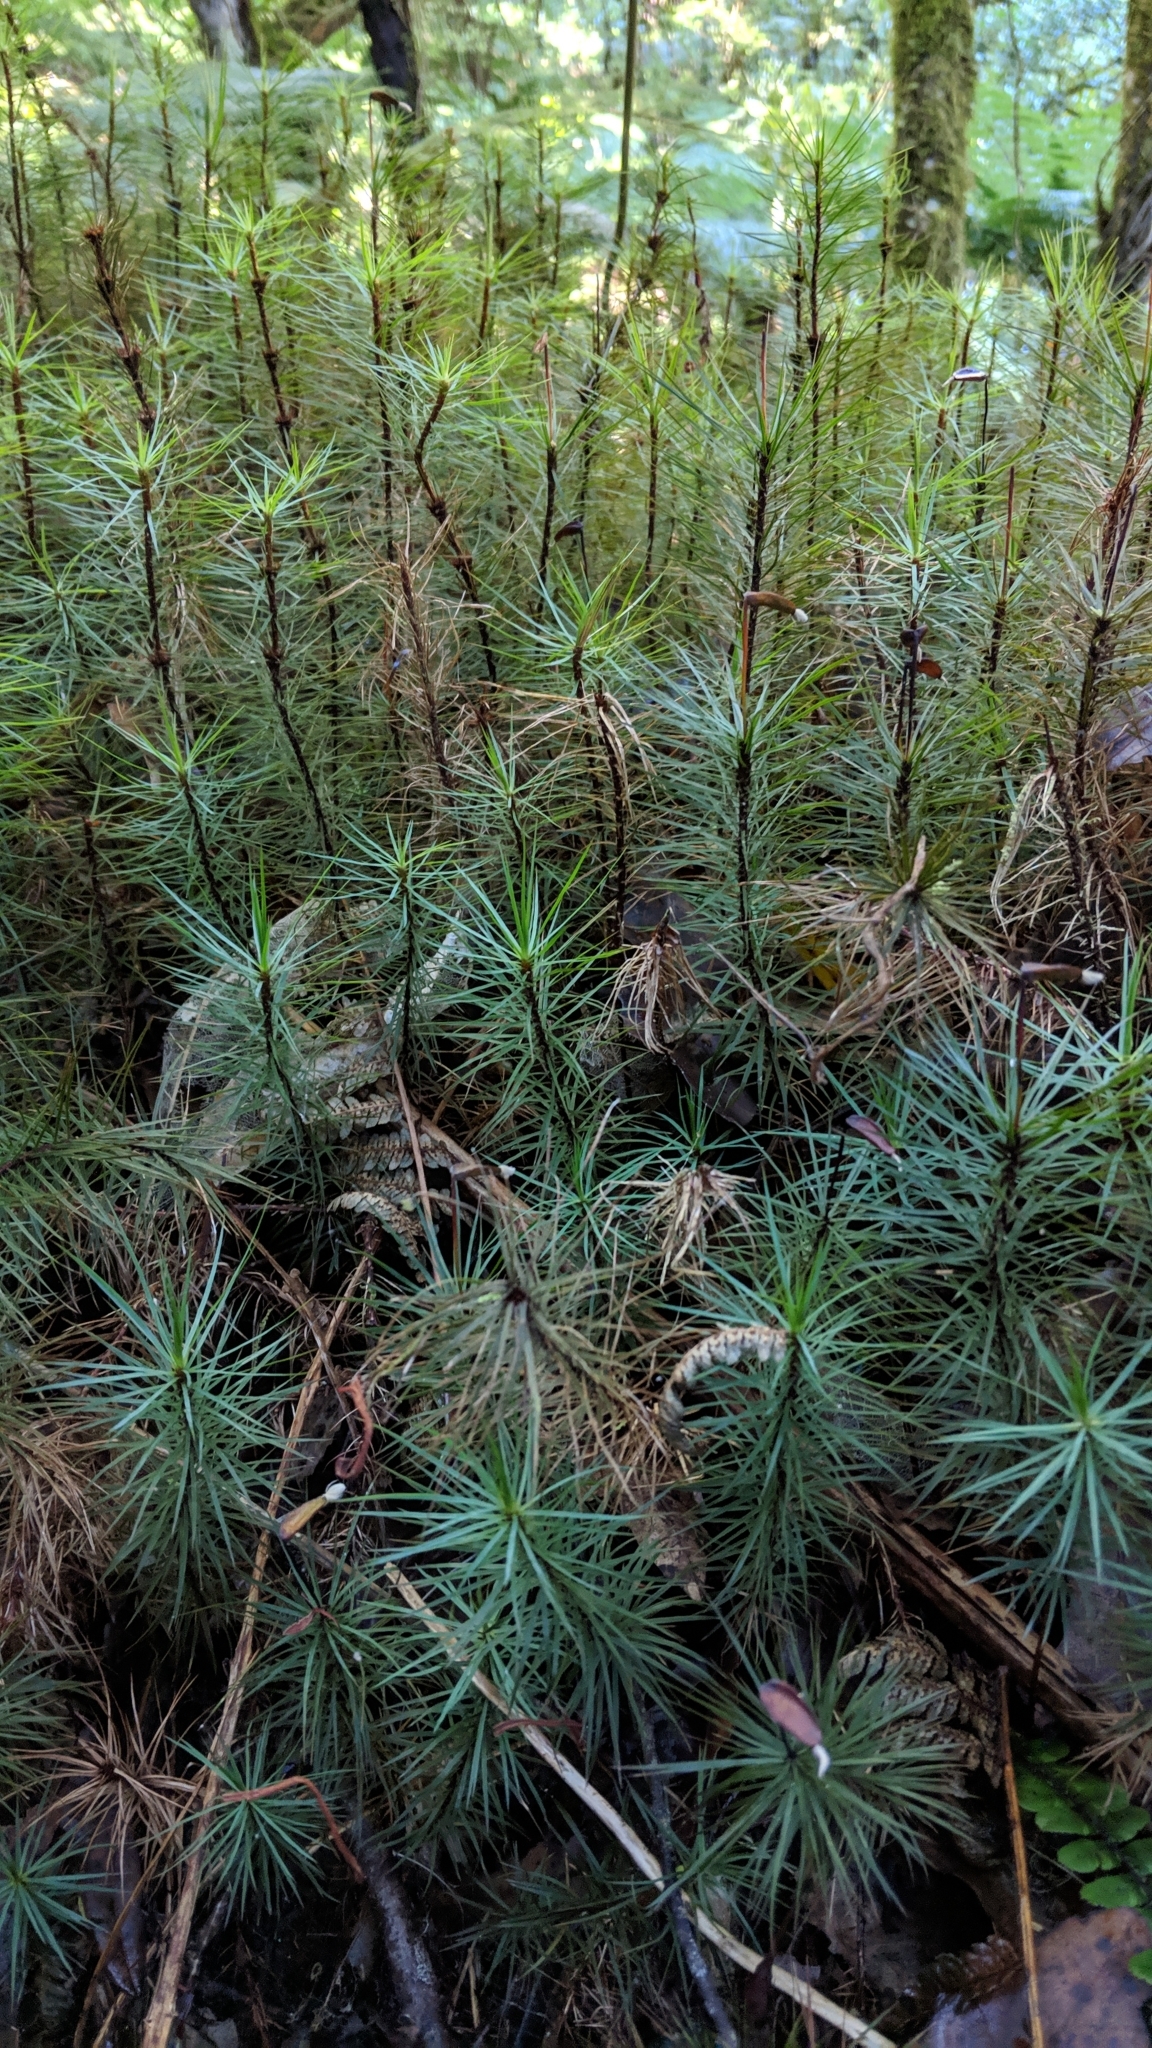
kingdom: Plantae
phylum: Bryophyta
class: Polytrichopsida
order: Polytrichales
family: Polytrichaceae
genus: Dawsonia
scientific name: Dawsonia superba
